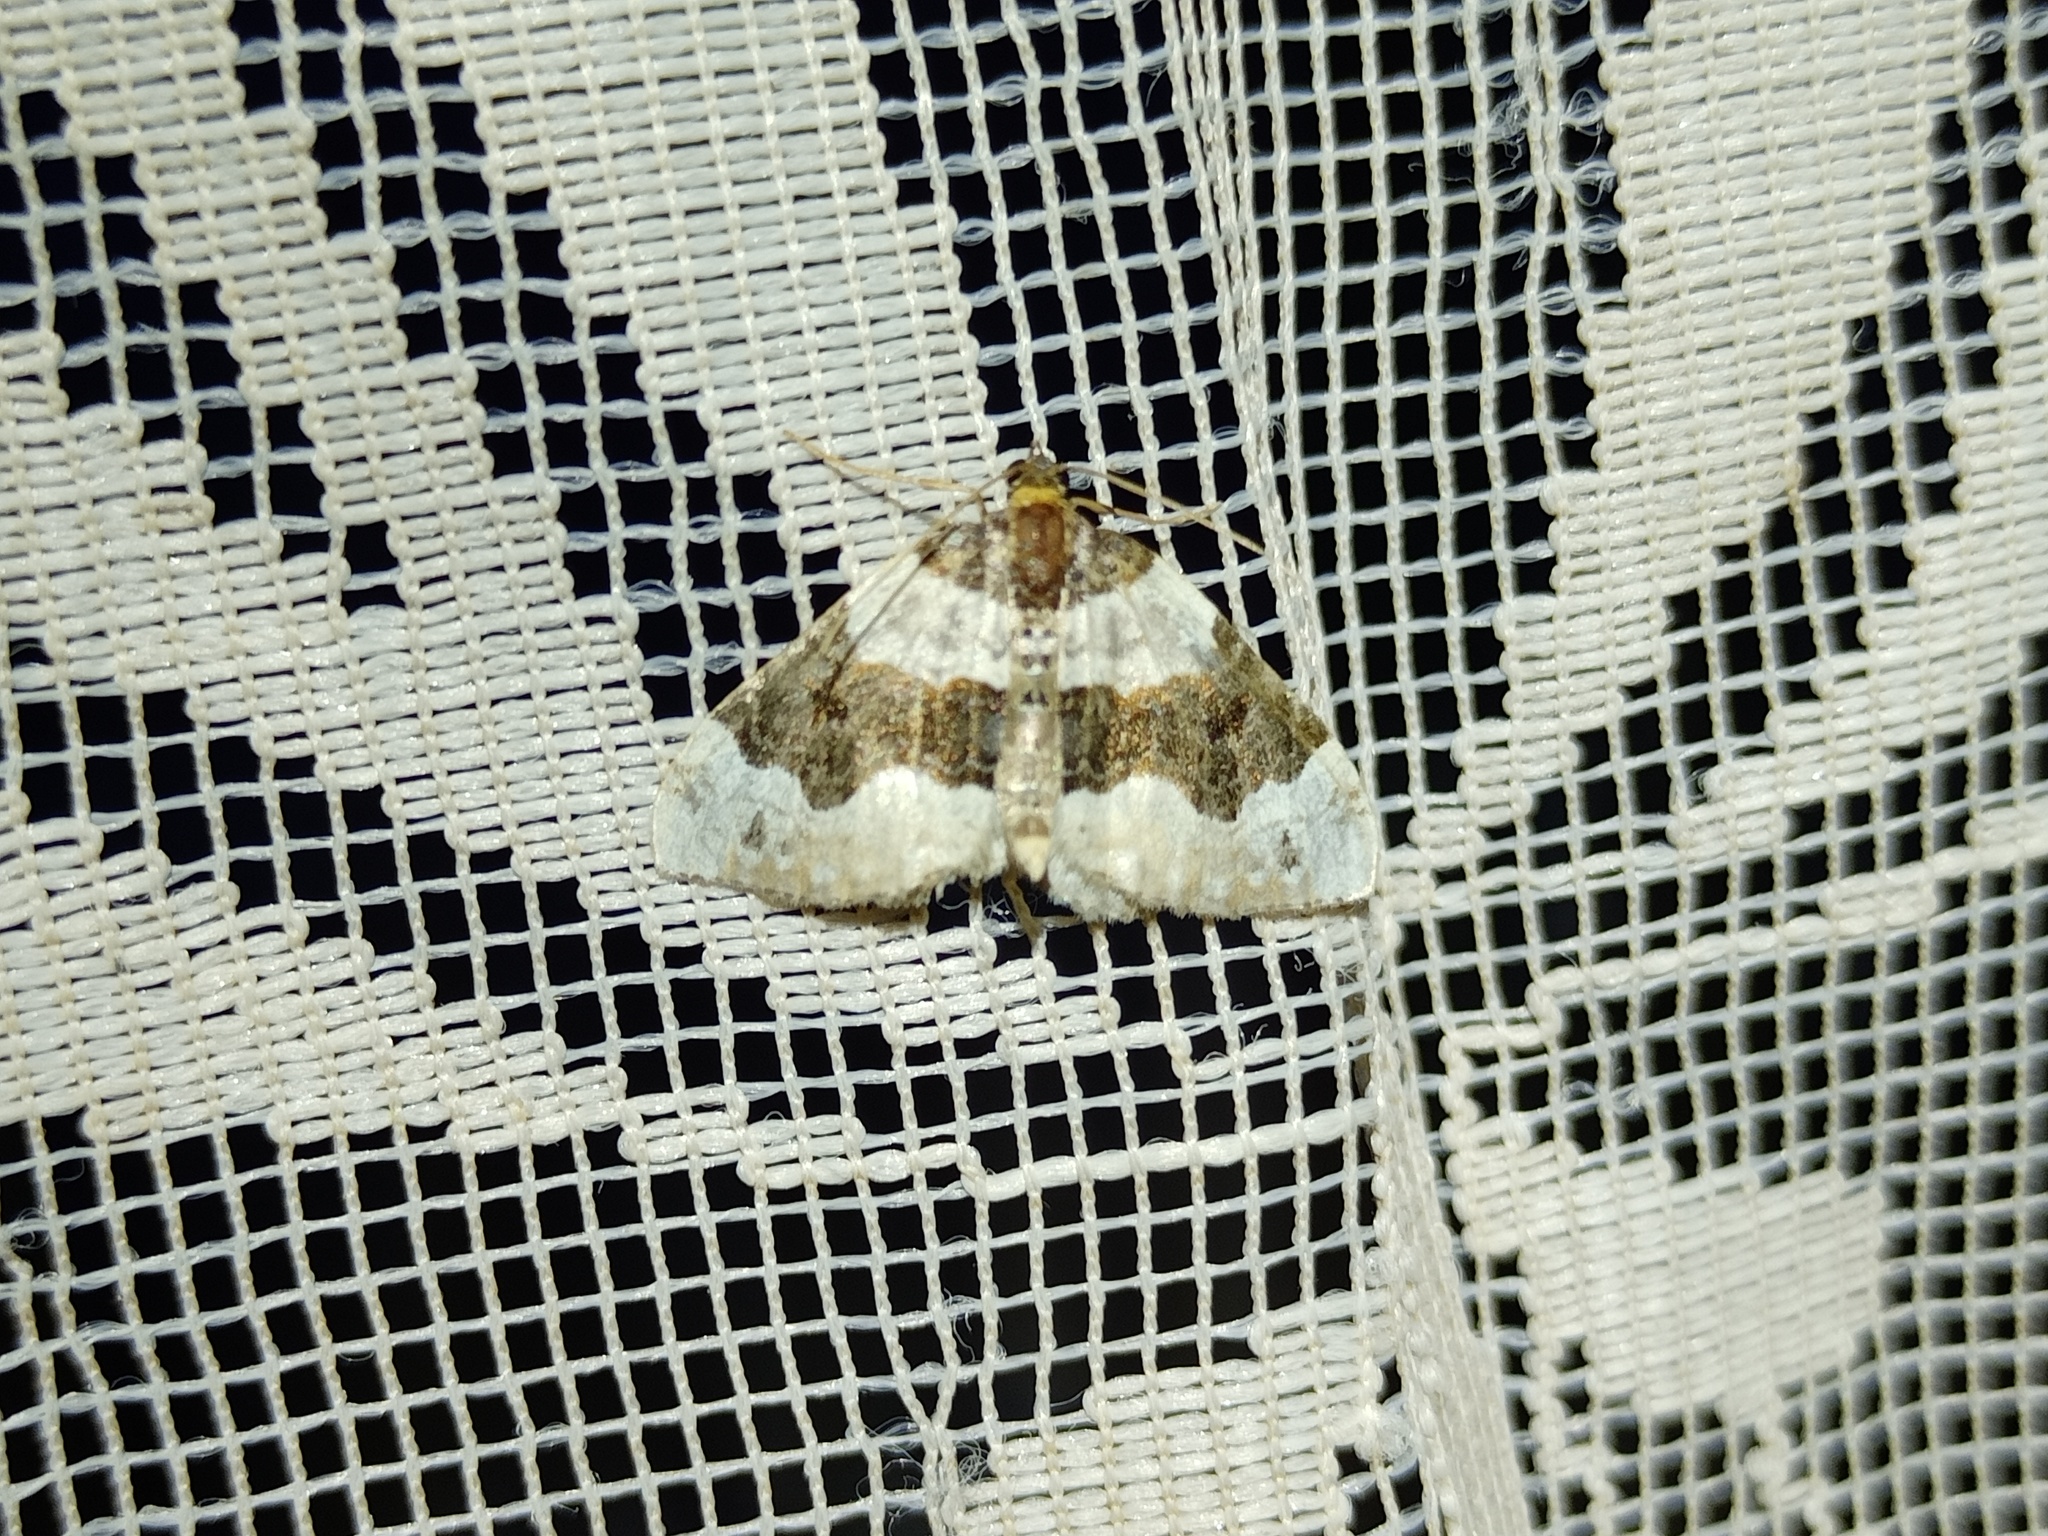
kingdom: Animalia
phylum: Arthropoda
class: Insecta
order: Lepidoptera
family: Geometridae
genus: Cosmorhoe
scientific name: Cosmorhoe ocellata
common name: Purple bar
